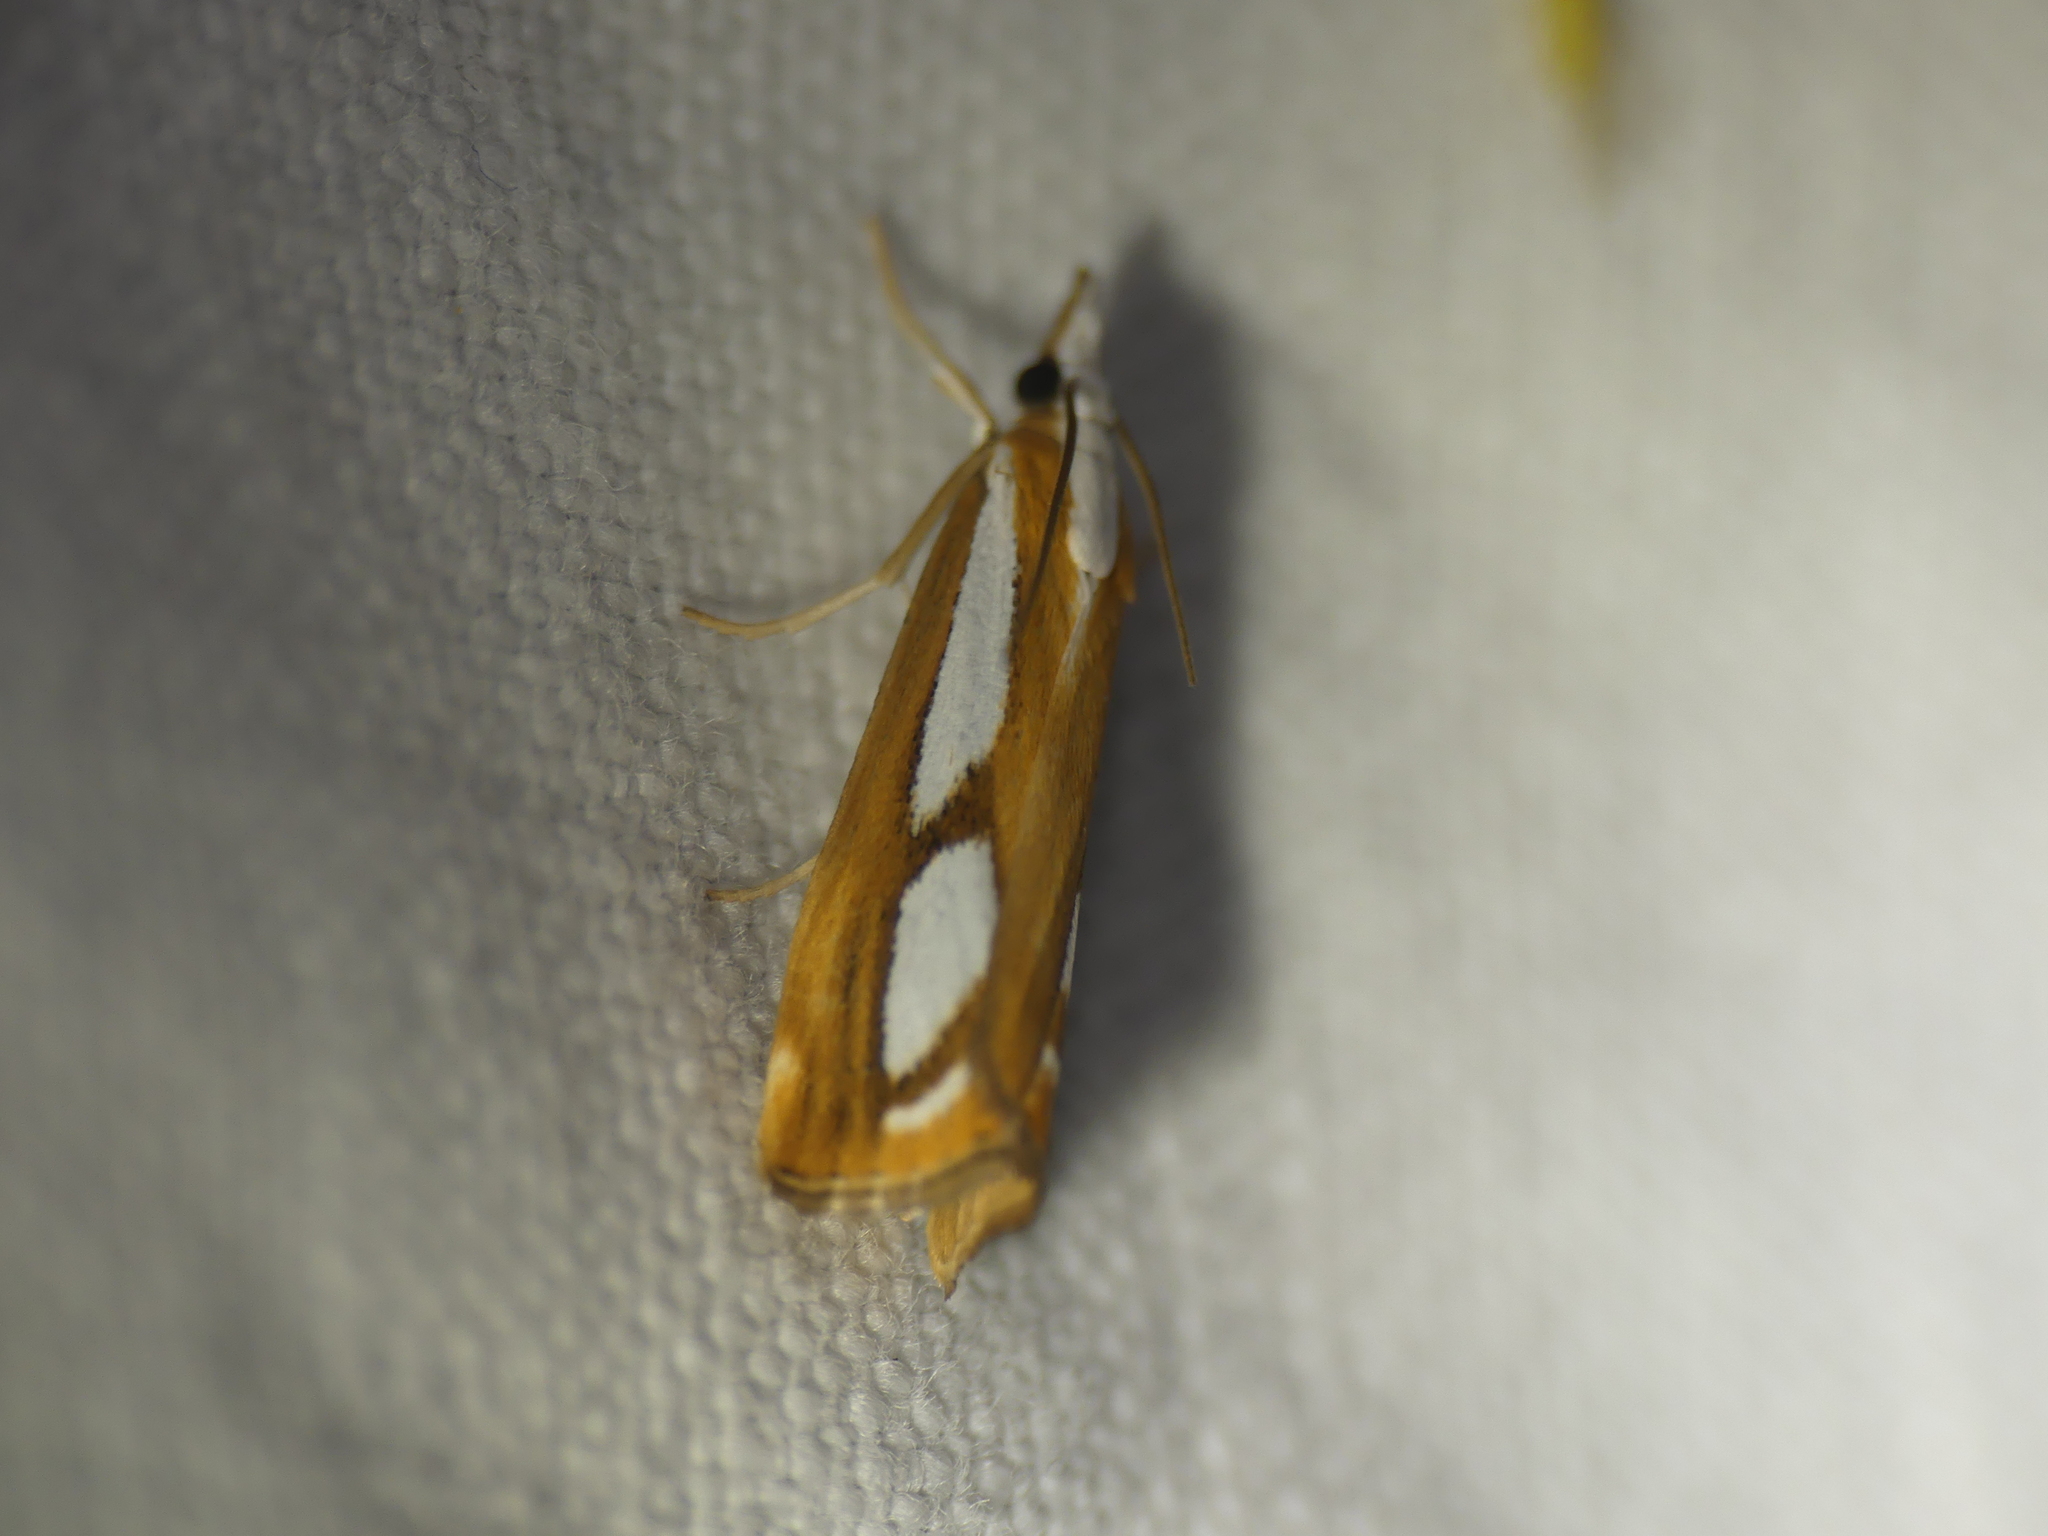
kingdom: Animalia
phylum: Arthropoda
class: Insecta
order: Lepidoptera
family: Crambidae
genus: Catoptria
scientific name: Catoptria
